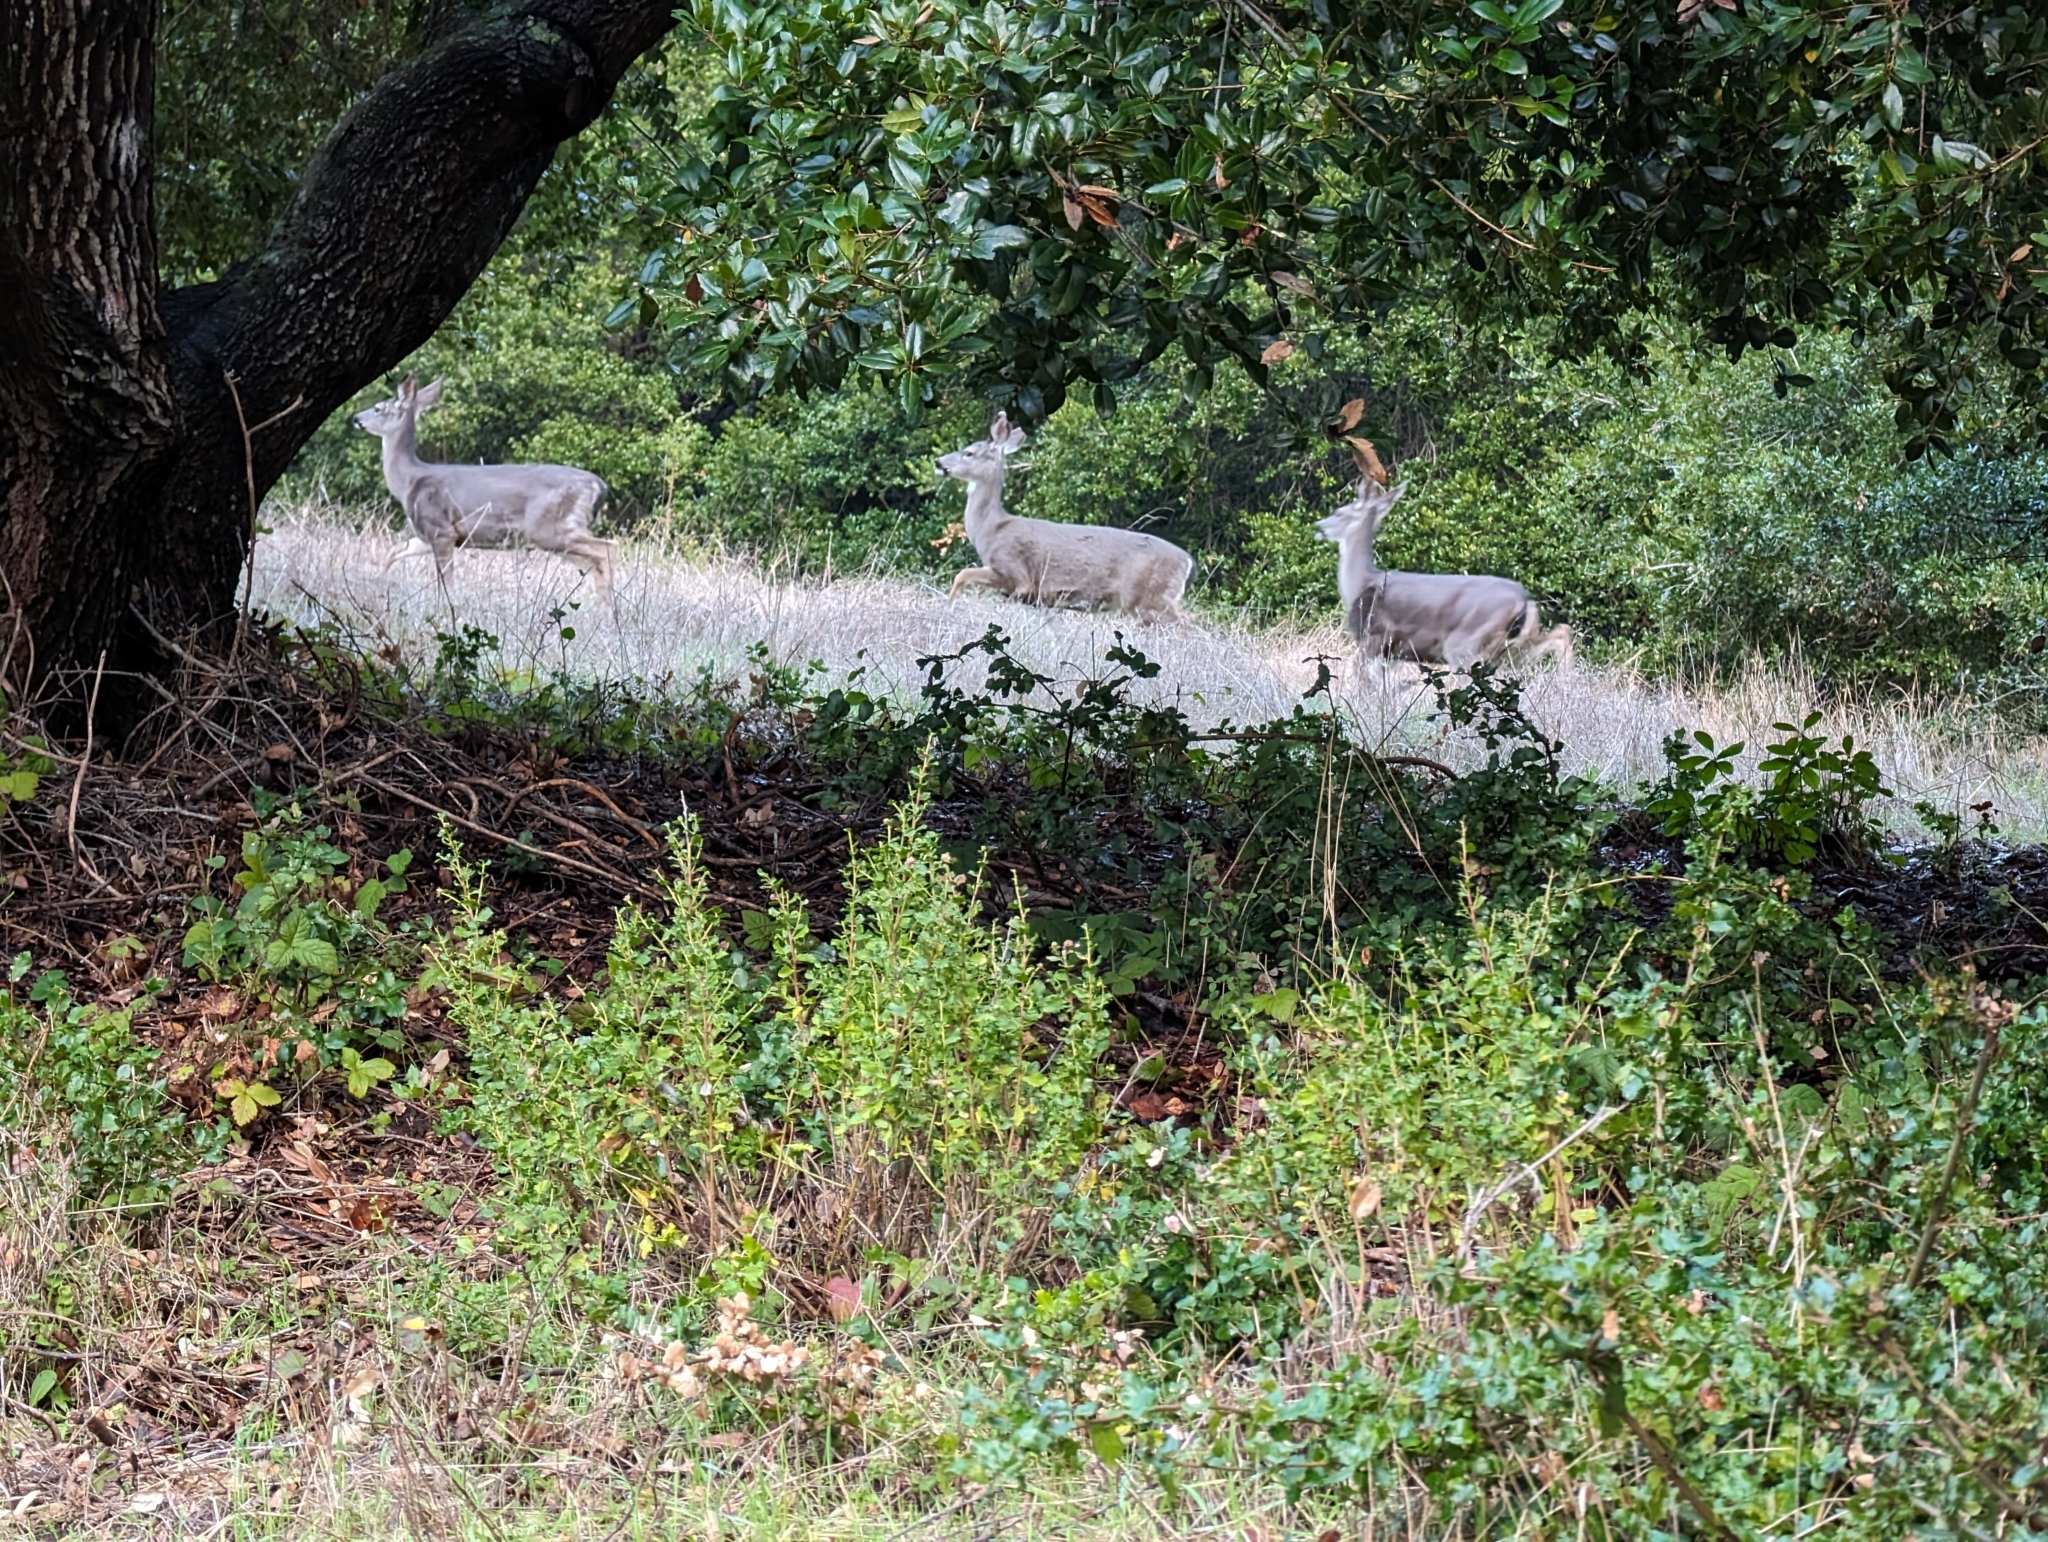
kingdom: Animalia
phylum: Chordata
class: Mammalia
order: Artiodactyla
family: Cervidae
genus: Odocoileus
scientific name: Odocoileus hemionus
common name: Mule deer
